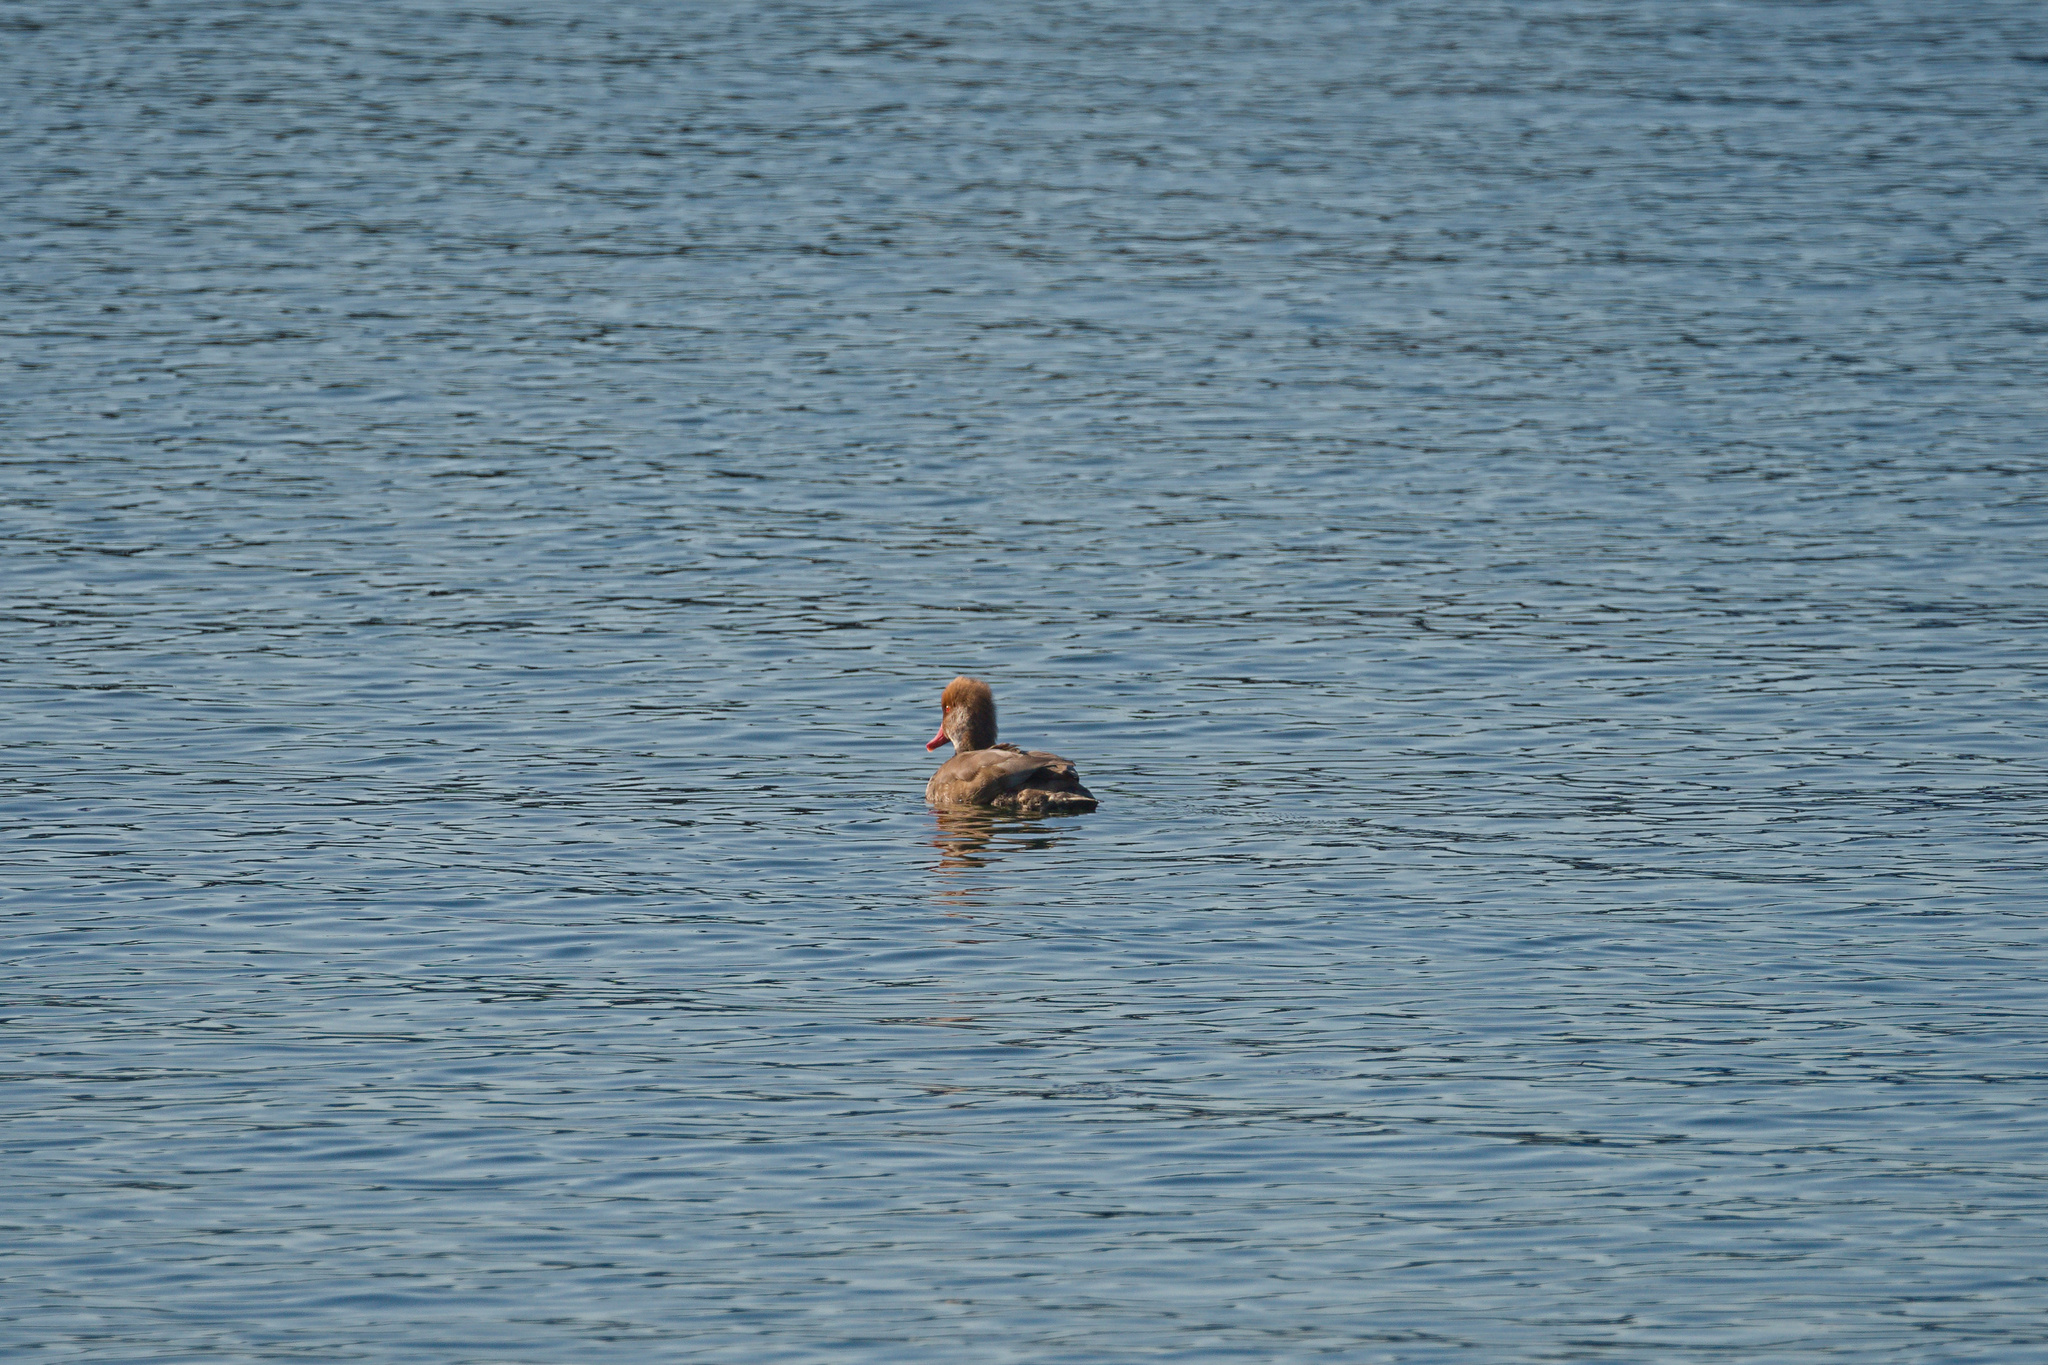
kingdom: Animalia
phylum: Chordata
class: Aves
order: Anseriformes
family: Anatidae
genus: Netta
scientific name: Netta rufina
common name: Red-crested pochard
